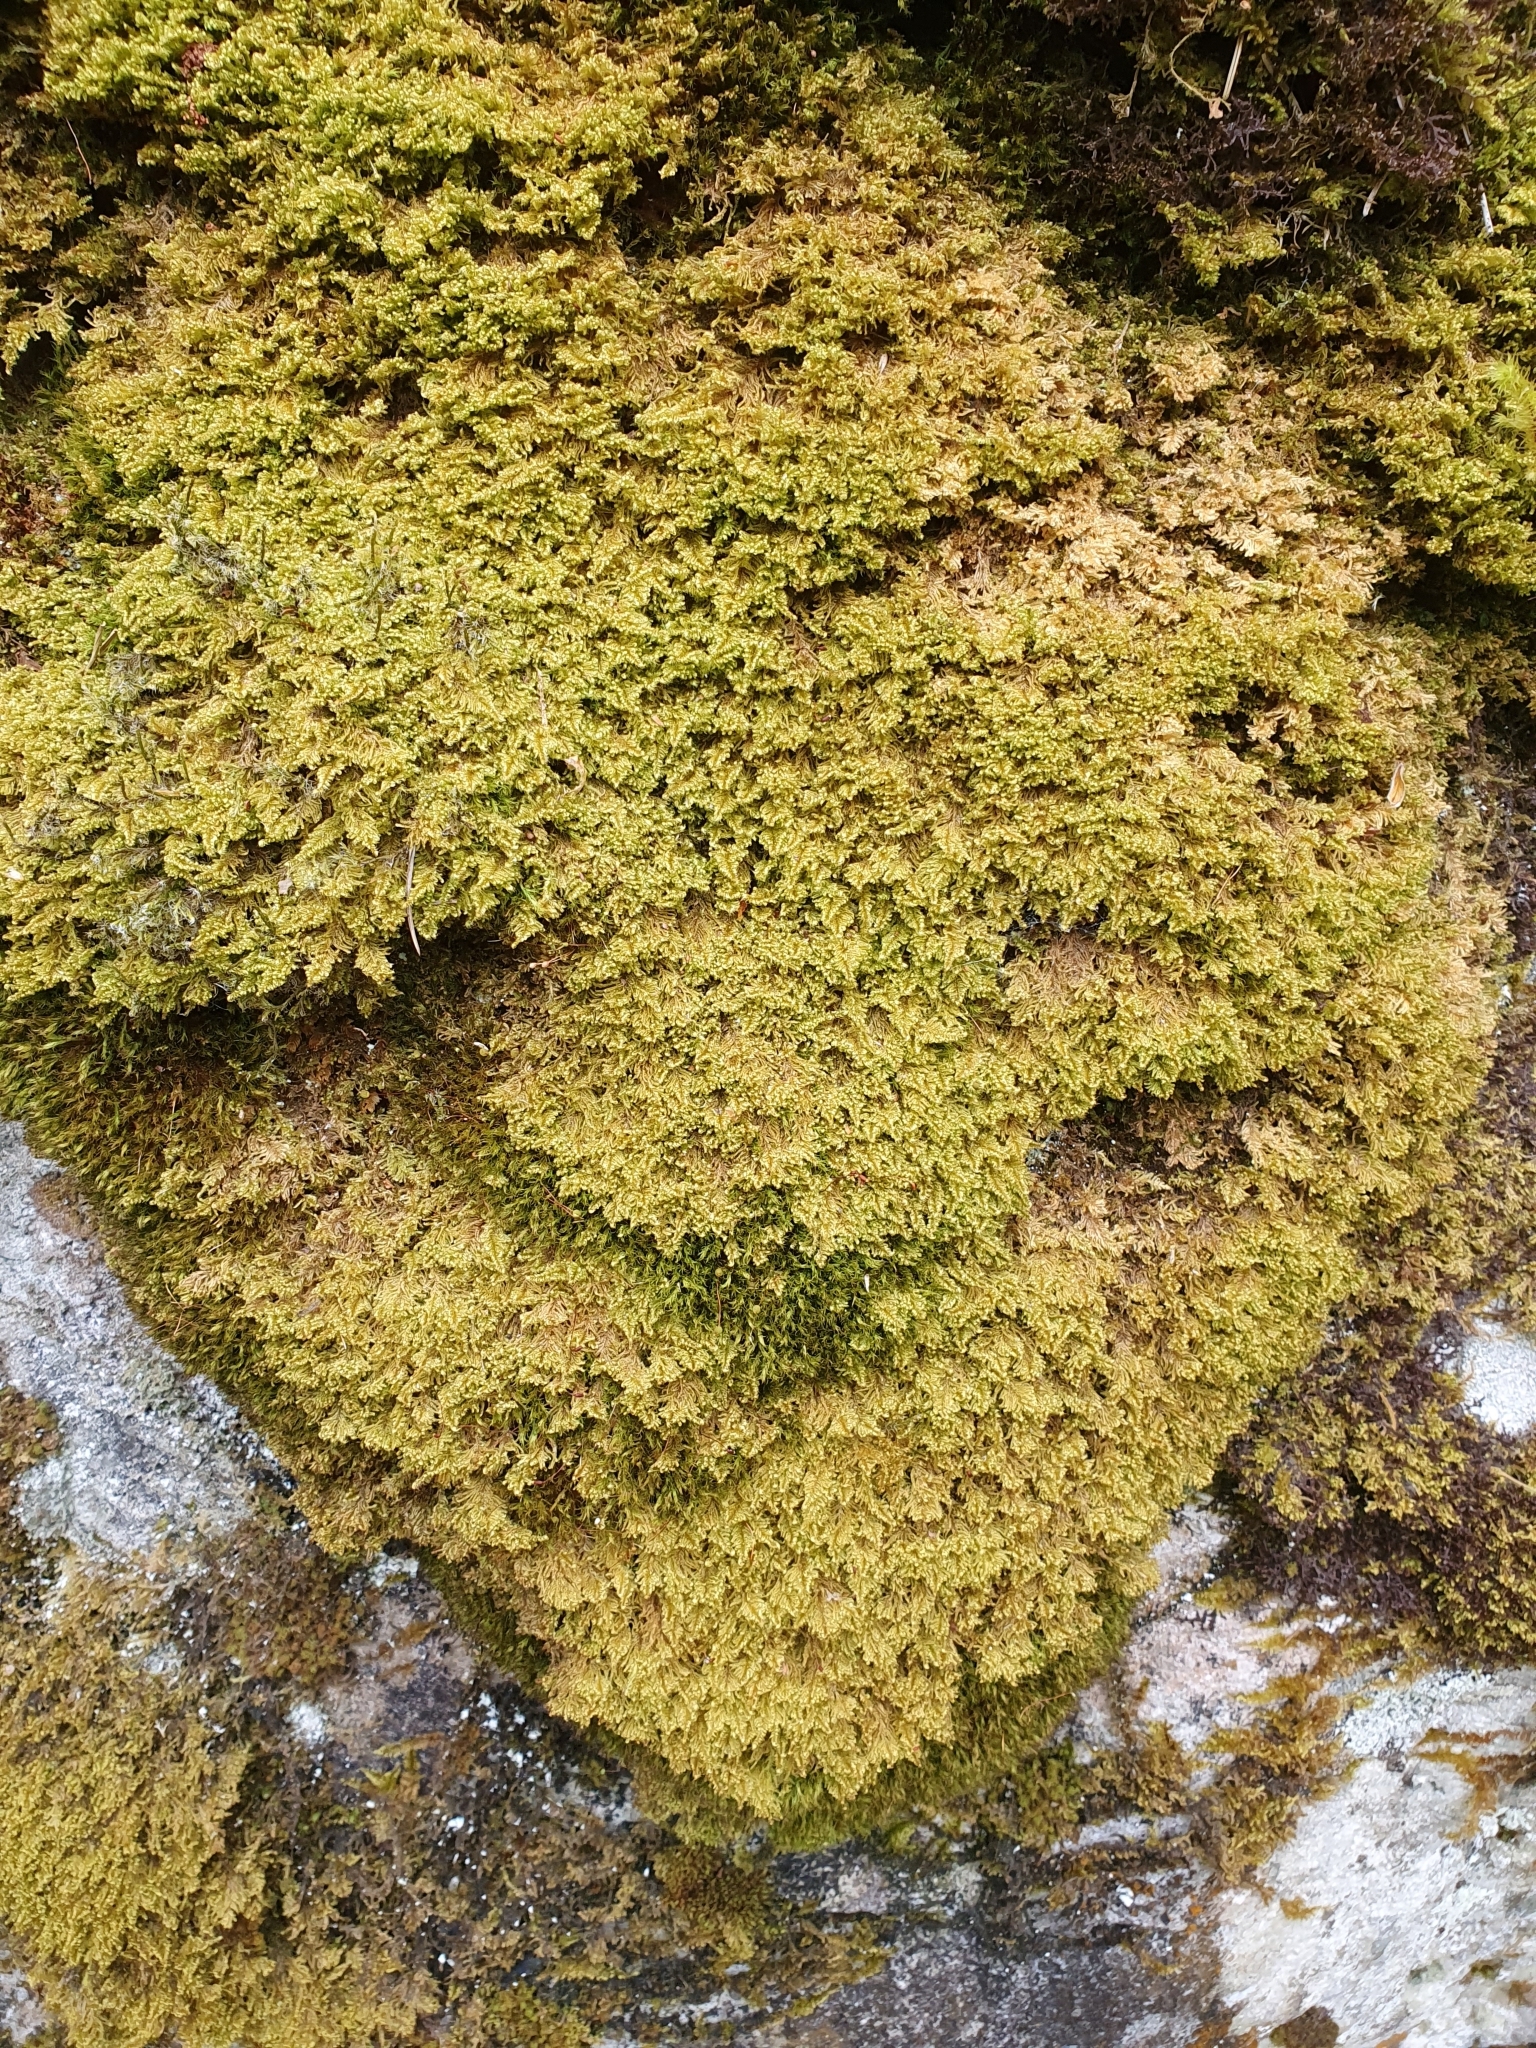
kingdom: Plantae
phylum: Bryophyta
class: Bryopsida
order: Hypnales
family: Myuriaceae
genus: Ctenidium
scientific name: Ctenidium molluscum
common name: Chalk comb-moss
